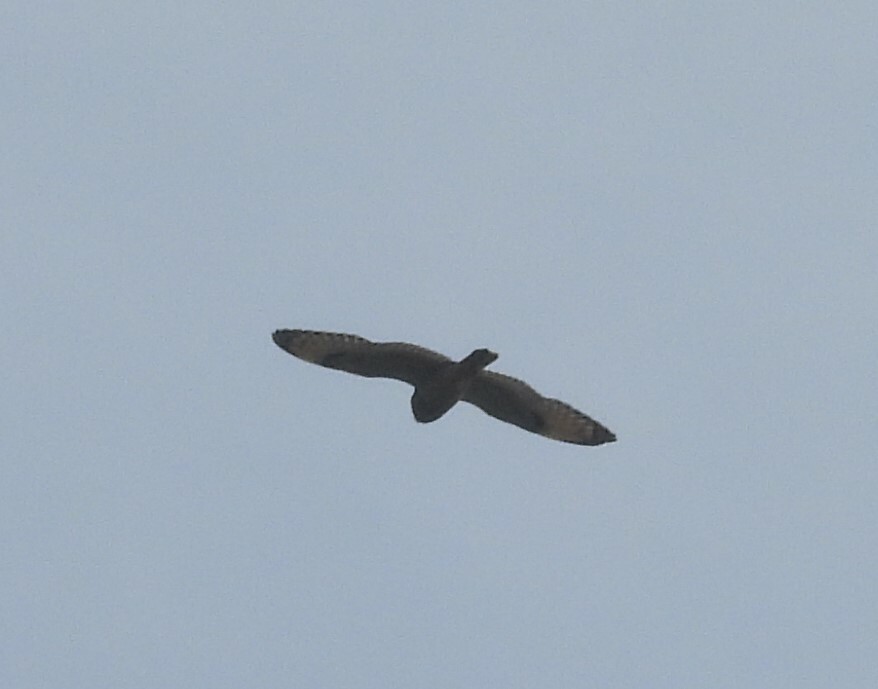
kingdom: Animalia
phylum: Chordata
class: Aves
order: Strigiformes
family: Strigidae
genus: Asio
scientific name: Asio flammeus
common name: Short-eared owl
